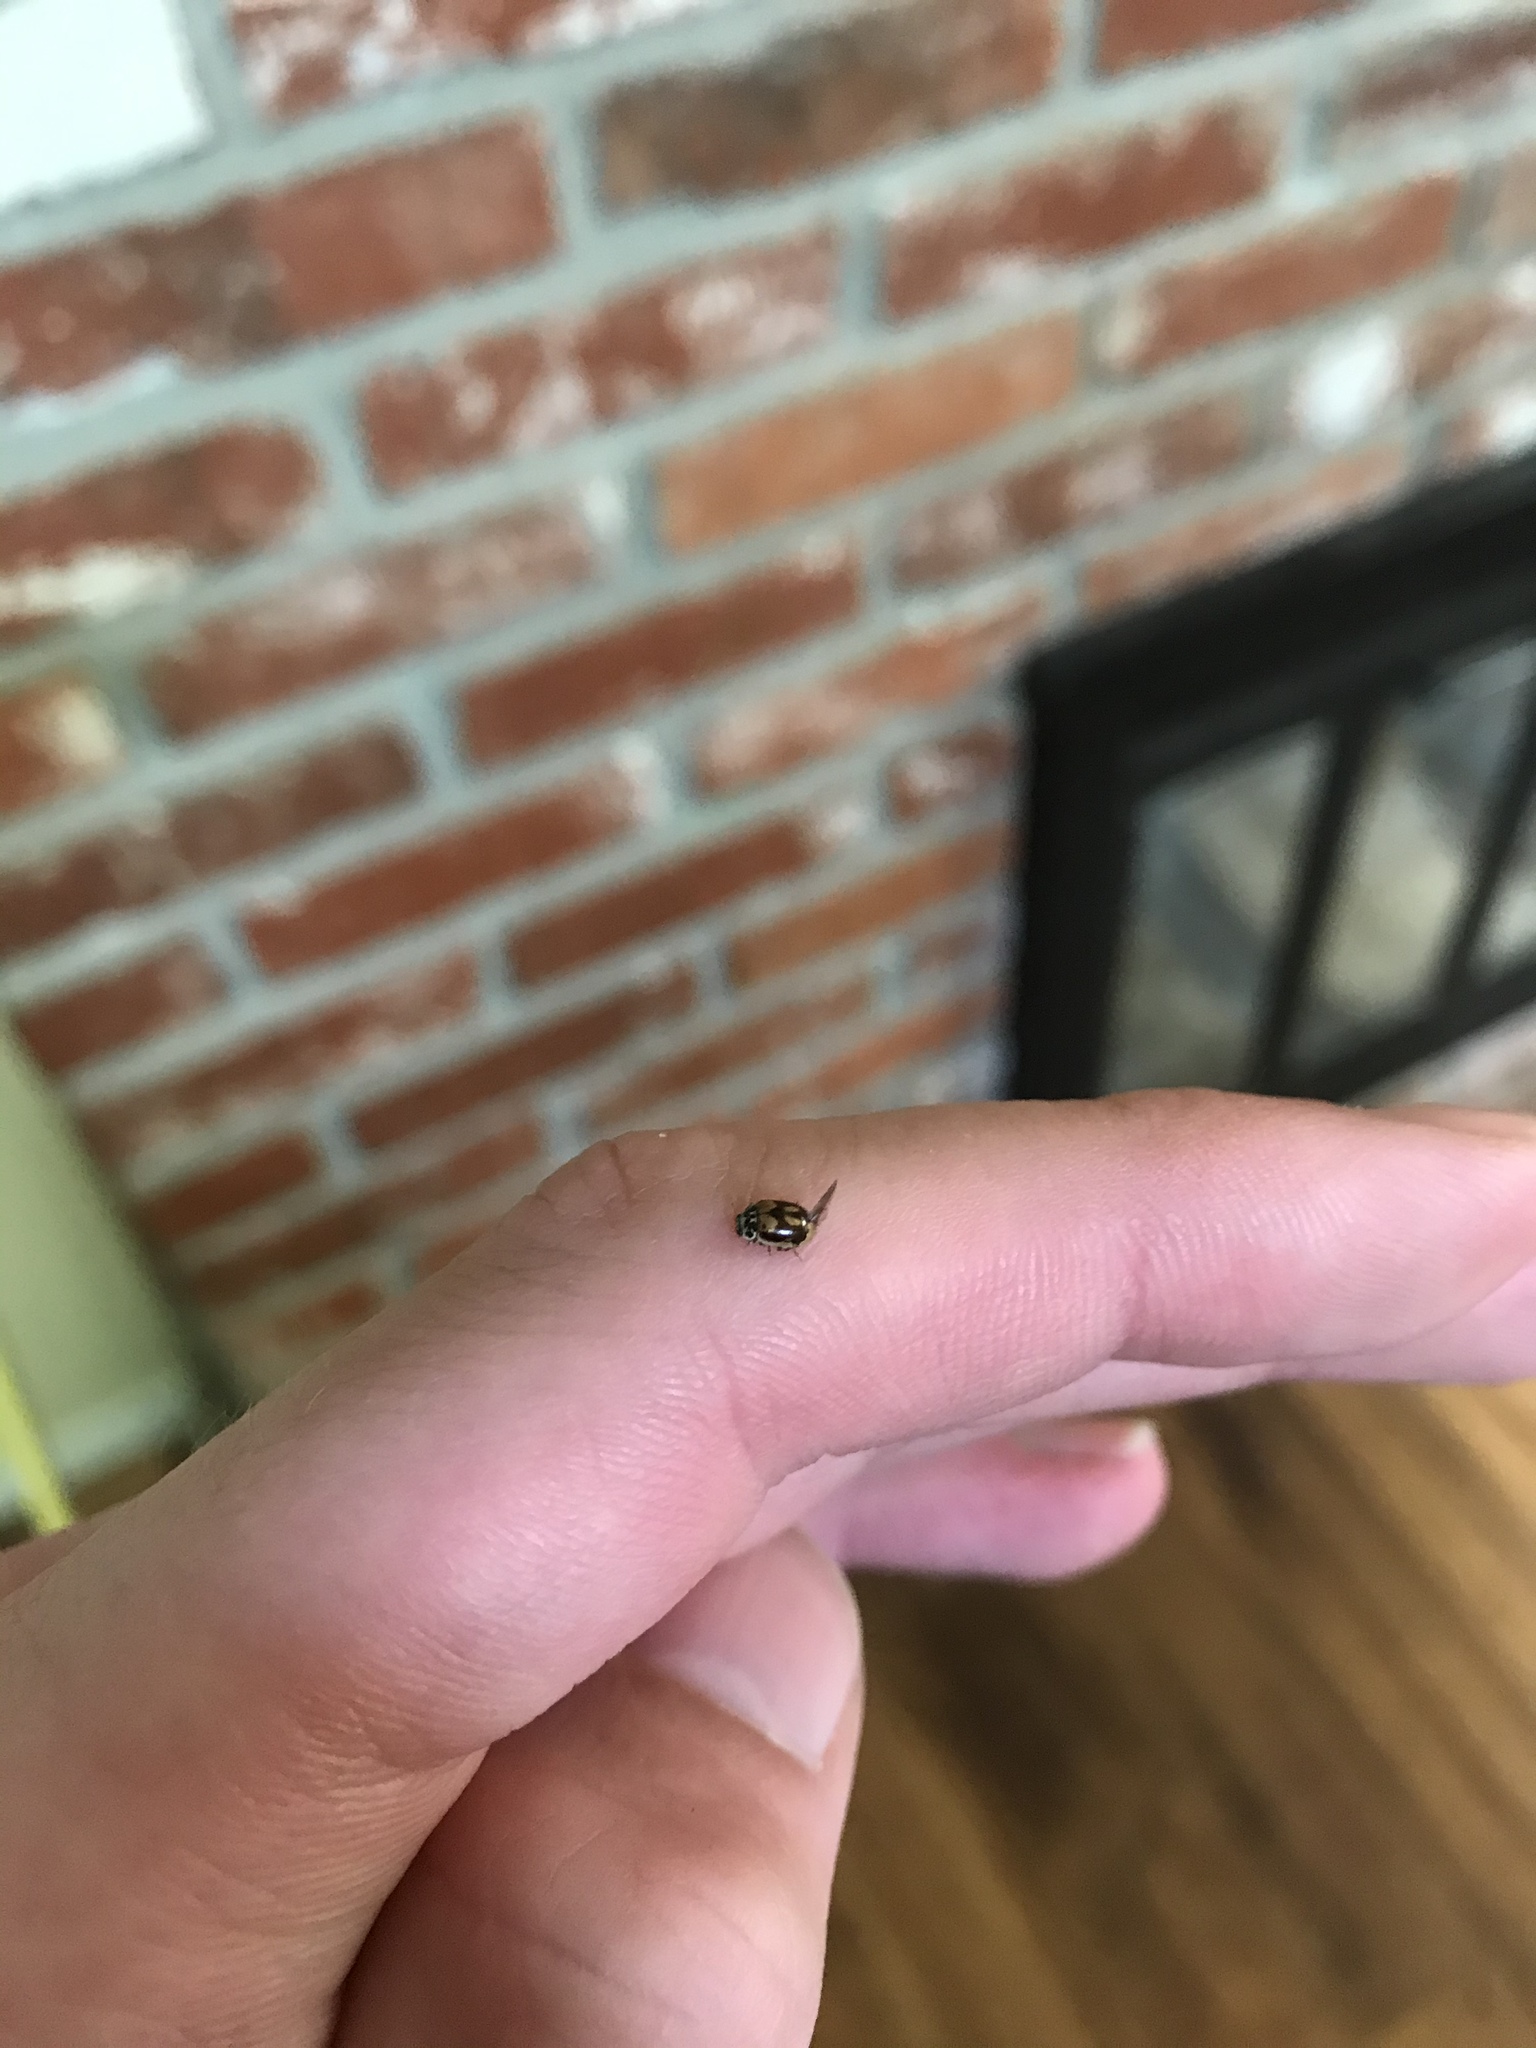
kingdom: Animalia
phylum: Arthropoda
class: Insecta
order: Coleoptera
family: Coccinellidae
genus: Mulsantina
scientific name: Mulsantina picta
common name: Painted ladybird
